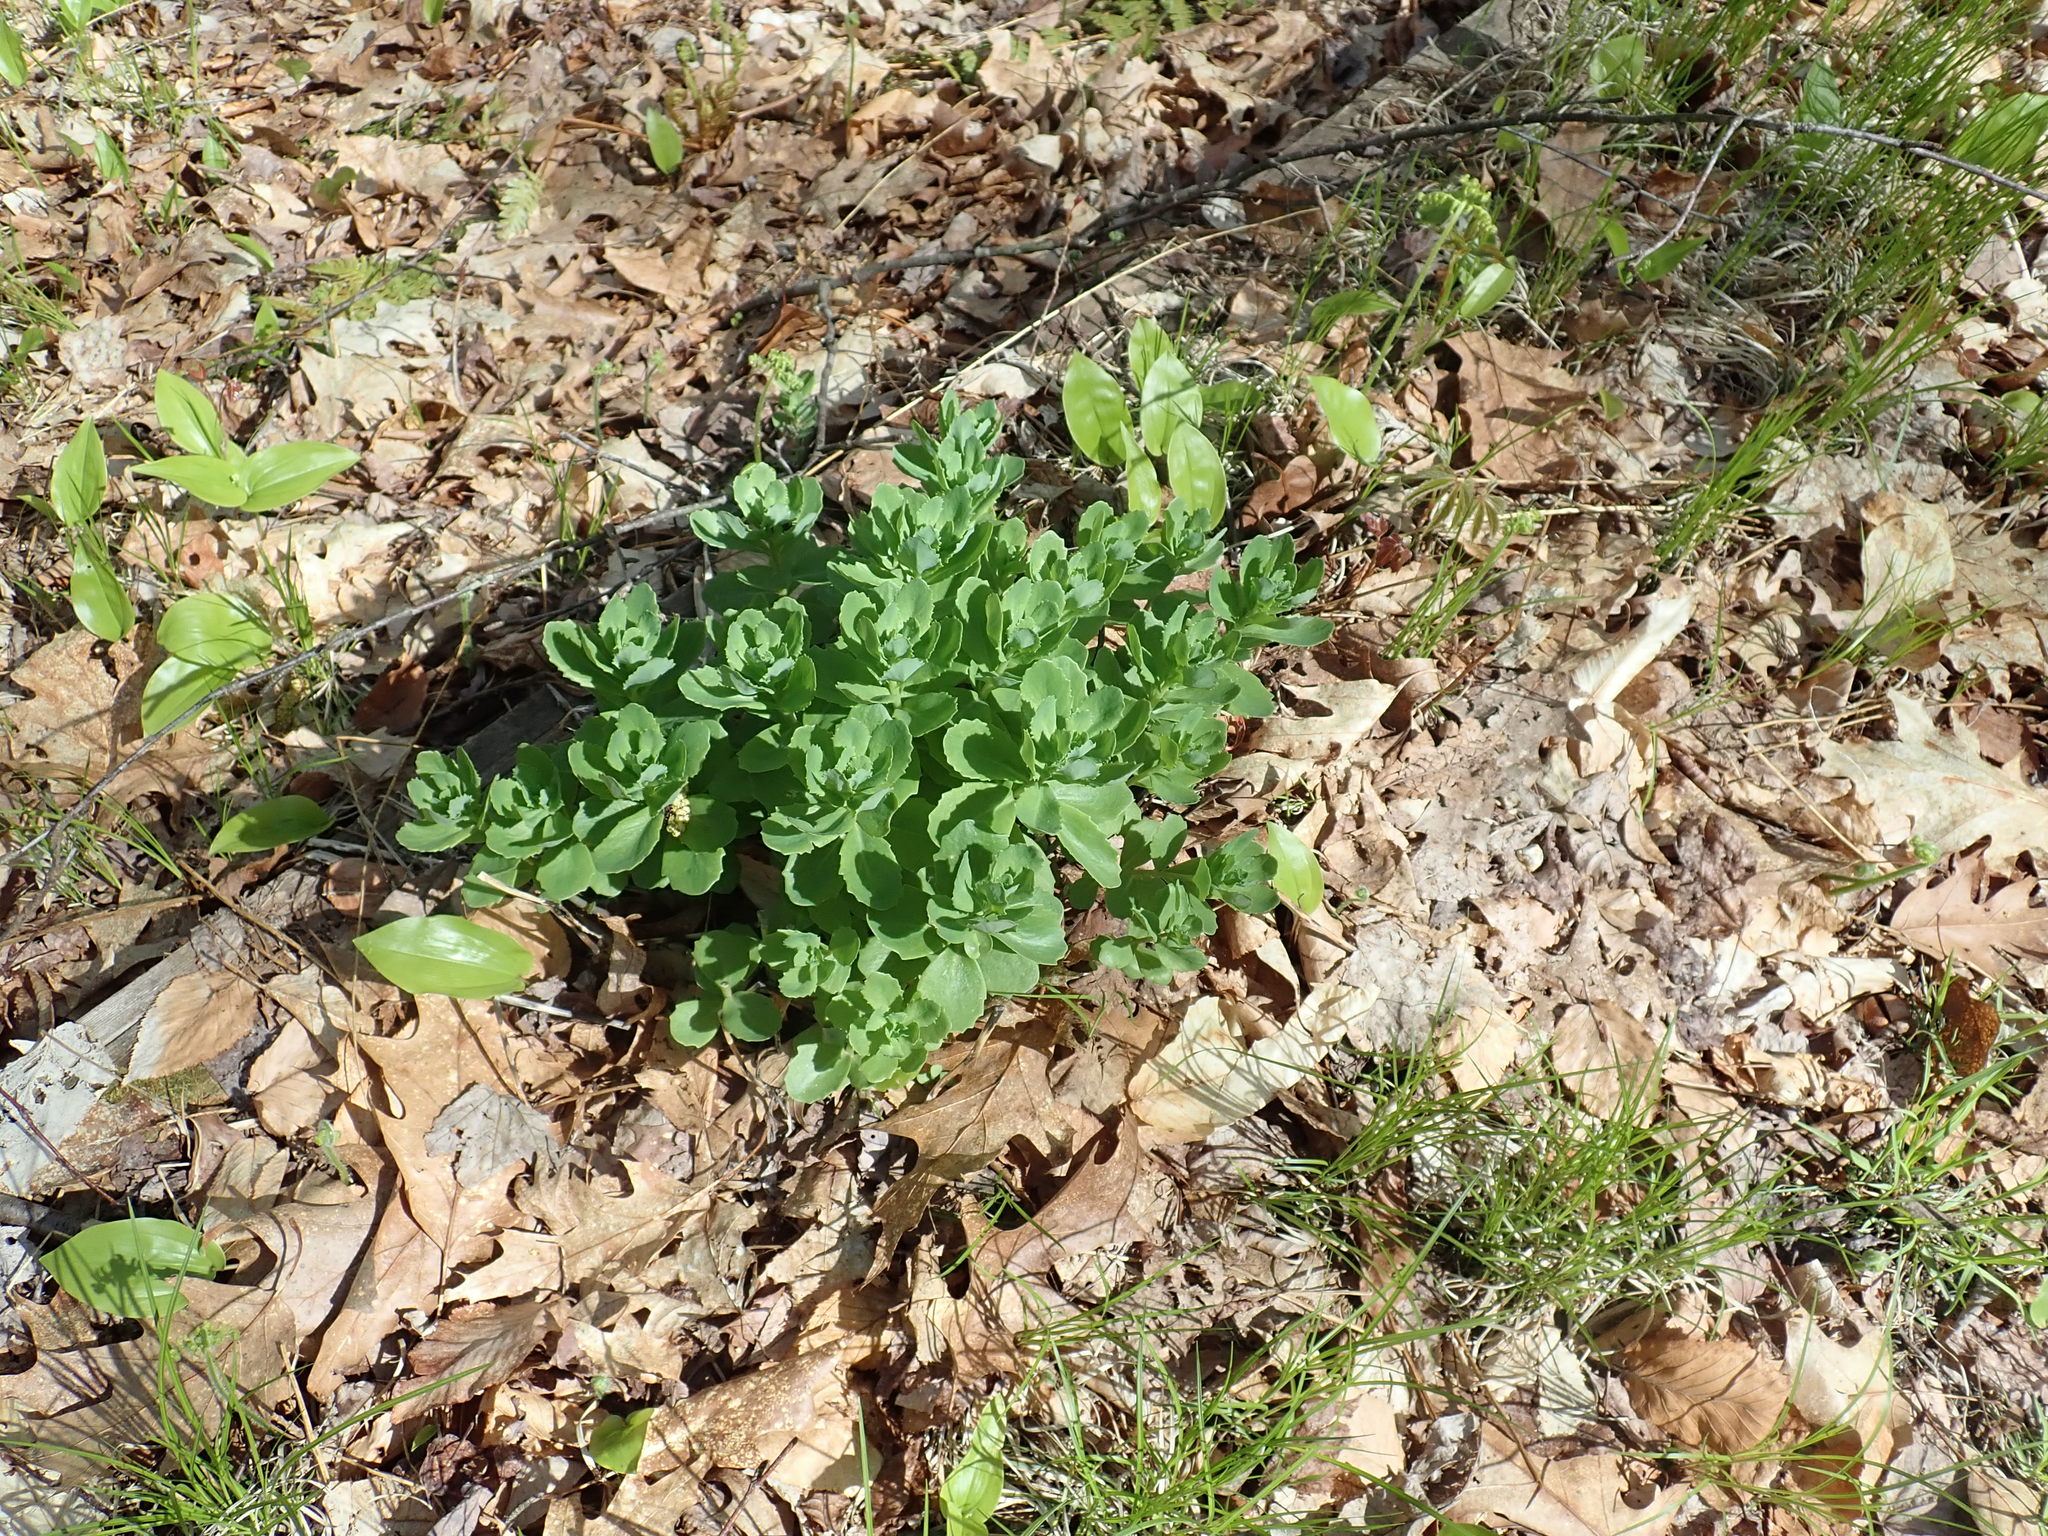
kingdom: Plantae
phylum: Tracheophyta
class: Magnoliopsida
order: Saxifragales
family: Crassulaceae
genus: Hylotelephium
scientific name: Hylotelephium telephium
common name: Live-forever
